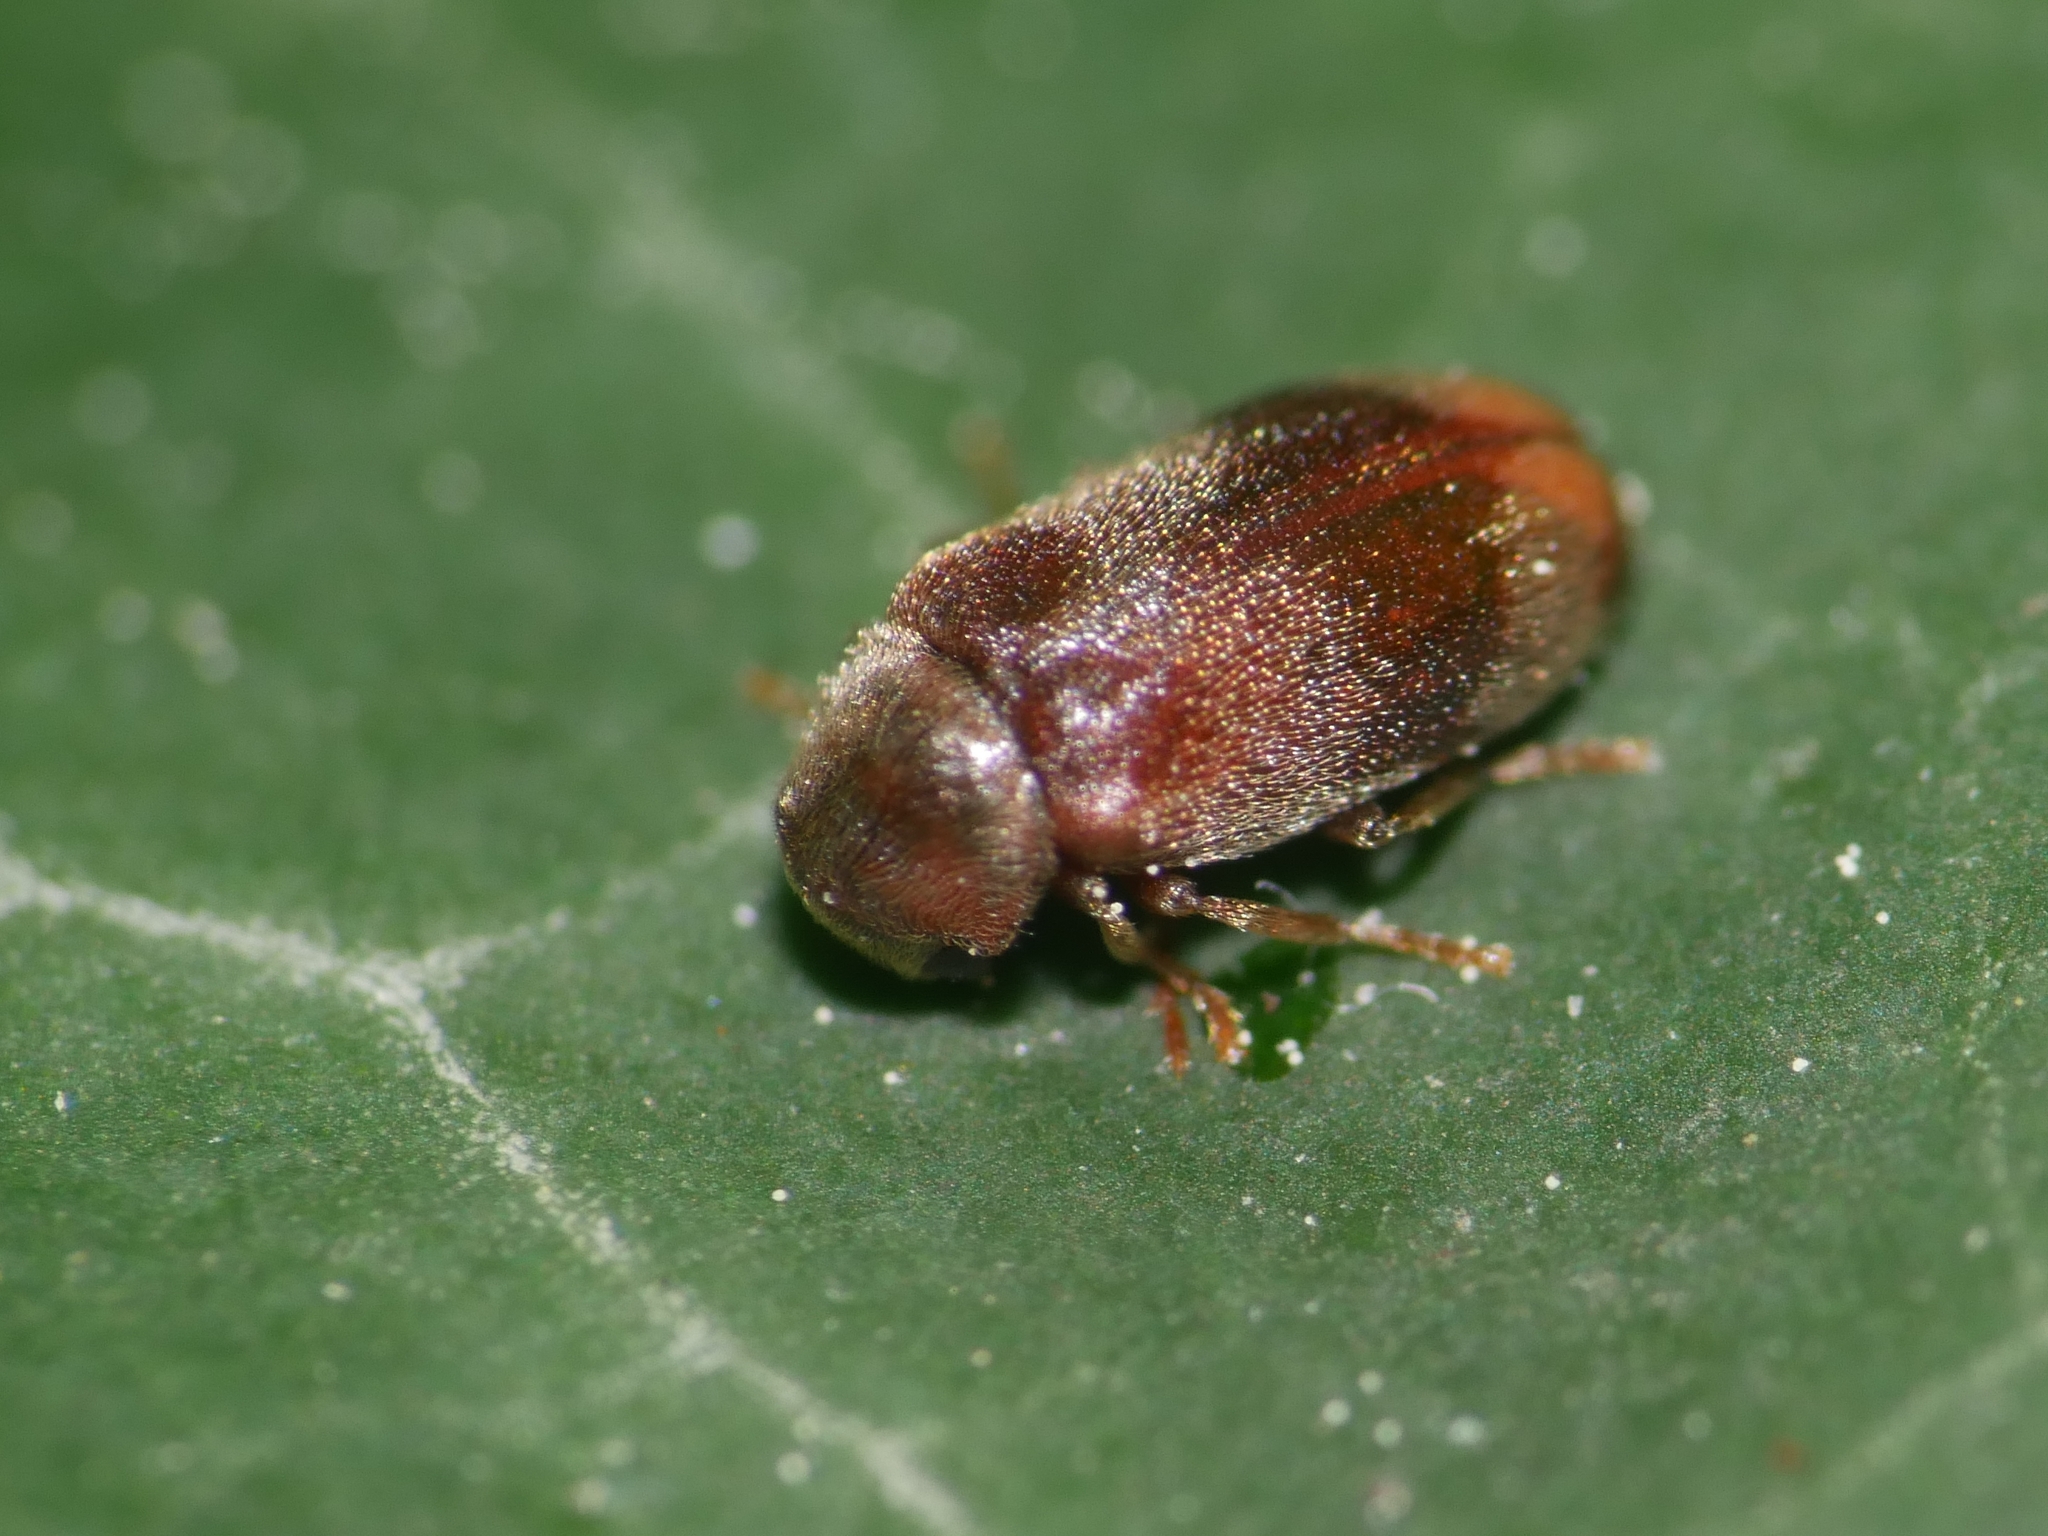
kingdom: Animalia
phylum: Arthropoda
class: Insecta
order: Coleoptera
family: Ptinidae
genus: Ochina
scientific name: Ochina ptinoides
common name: Ivy boring beetle
